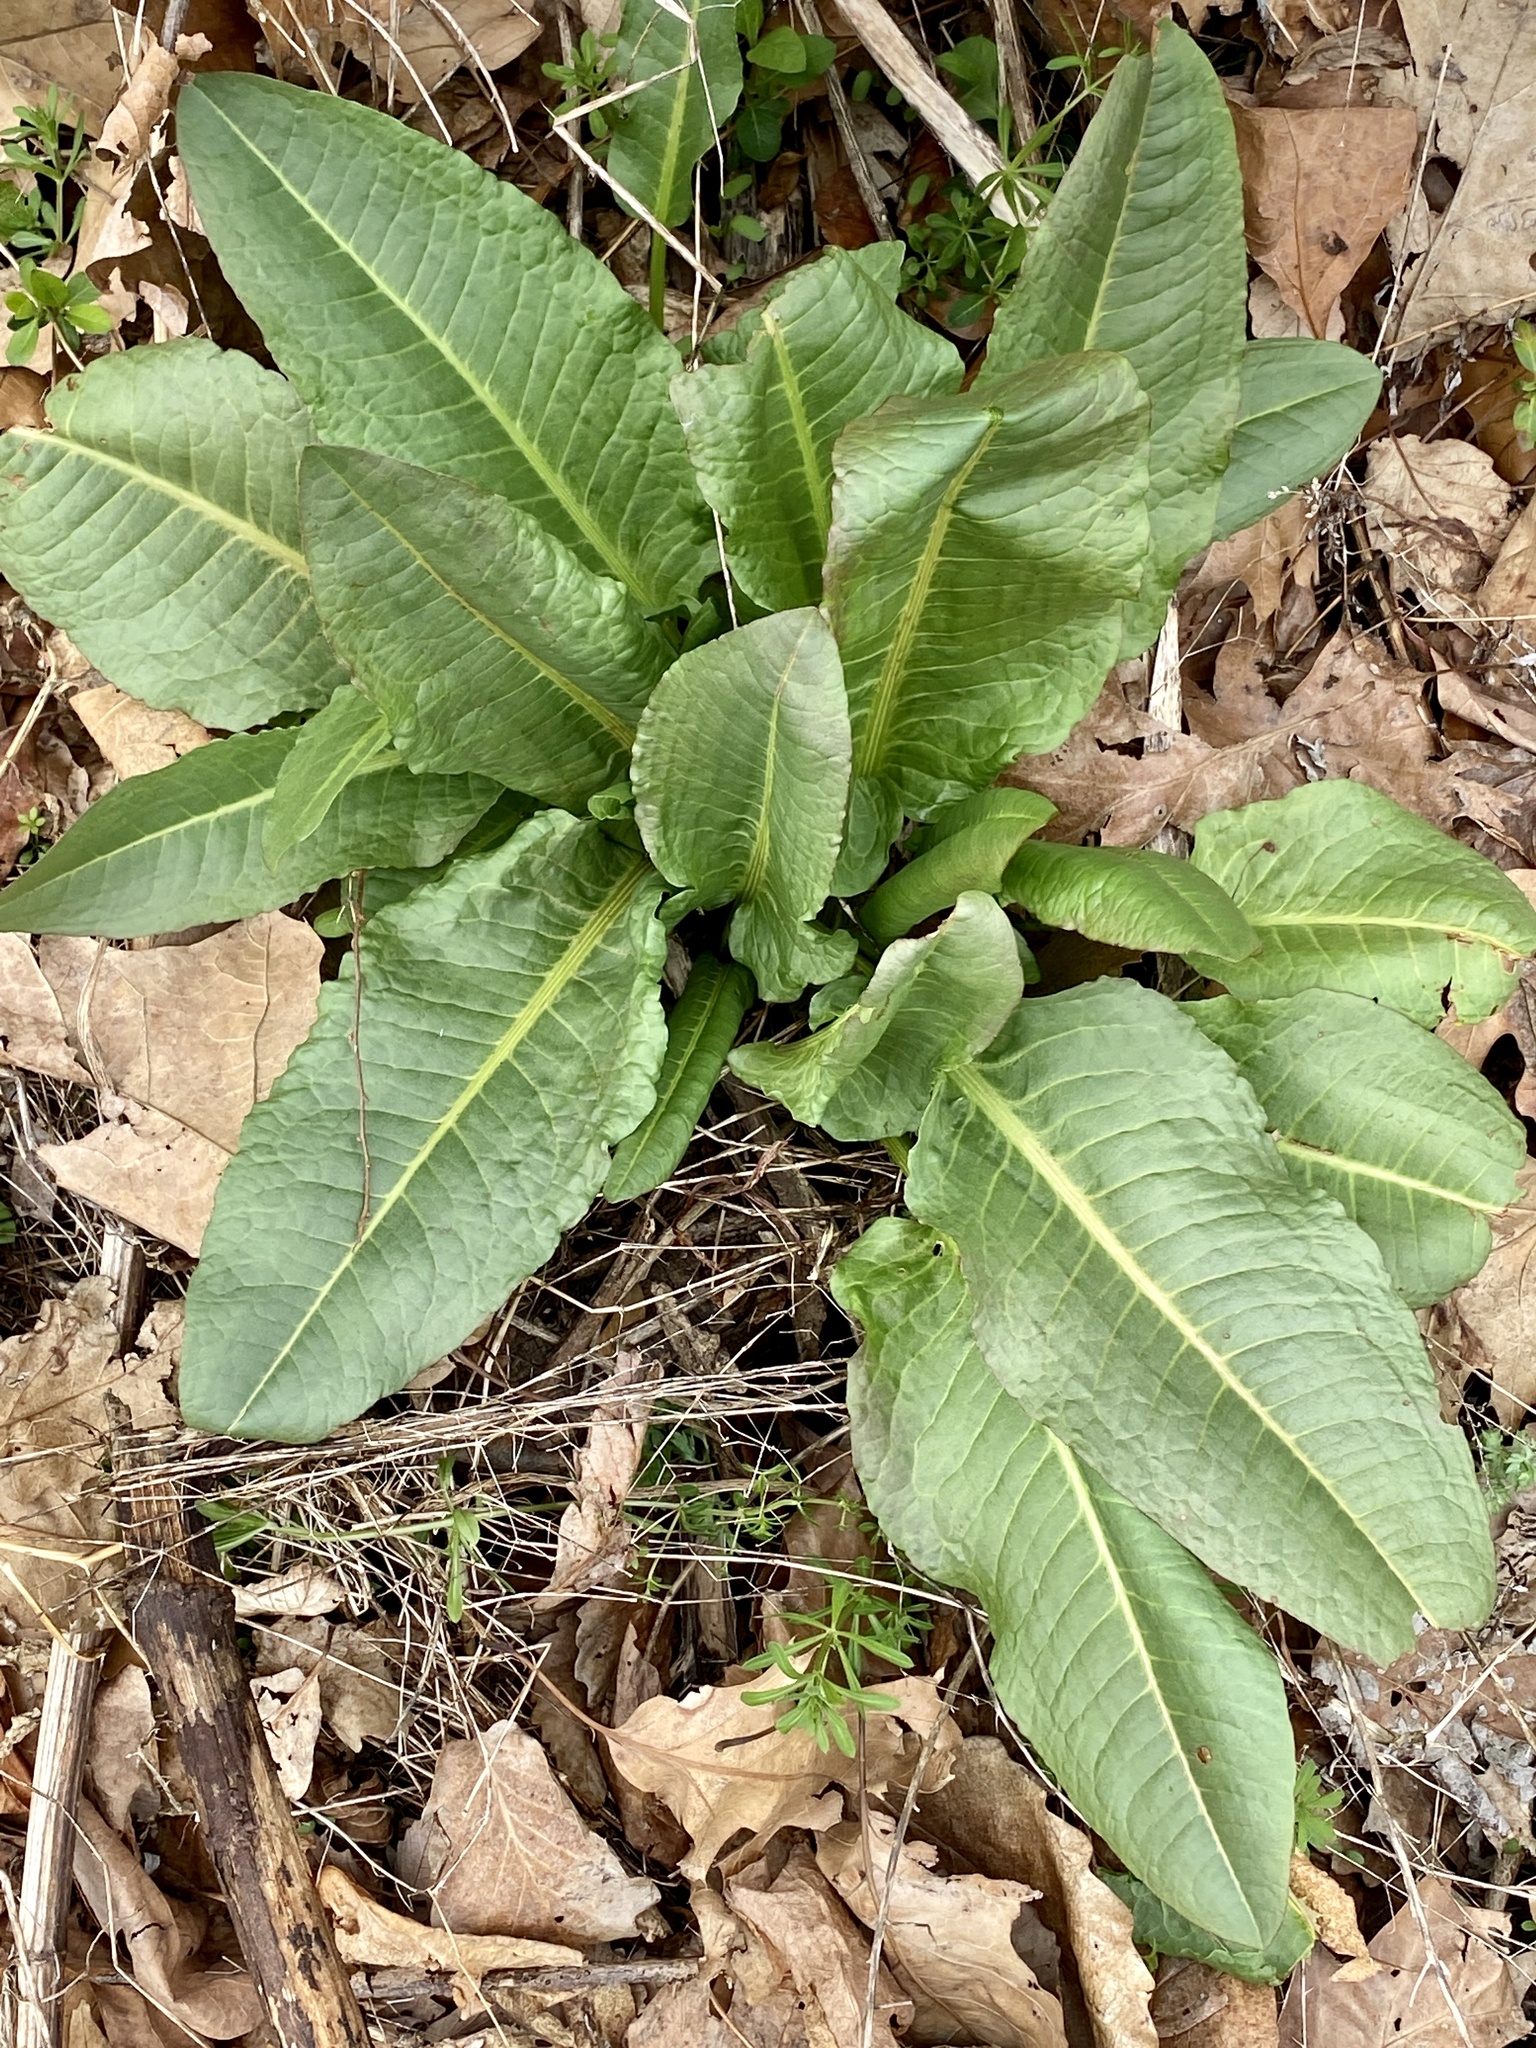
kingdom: Plantae
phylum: Tracheophyta
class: Magnoliopsida
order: Caryophyllales
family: Polygonaceae
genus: Rumex
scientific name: Rumex obtusifolius
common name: Bitter dock
